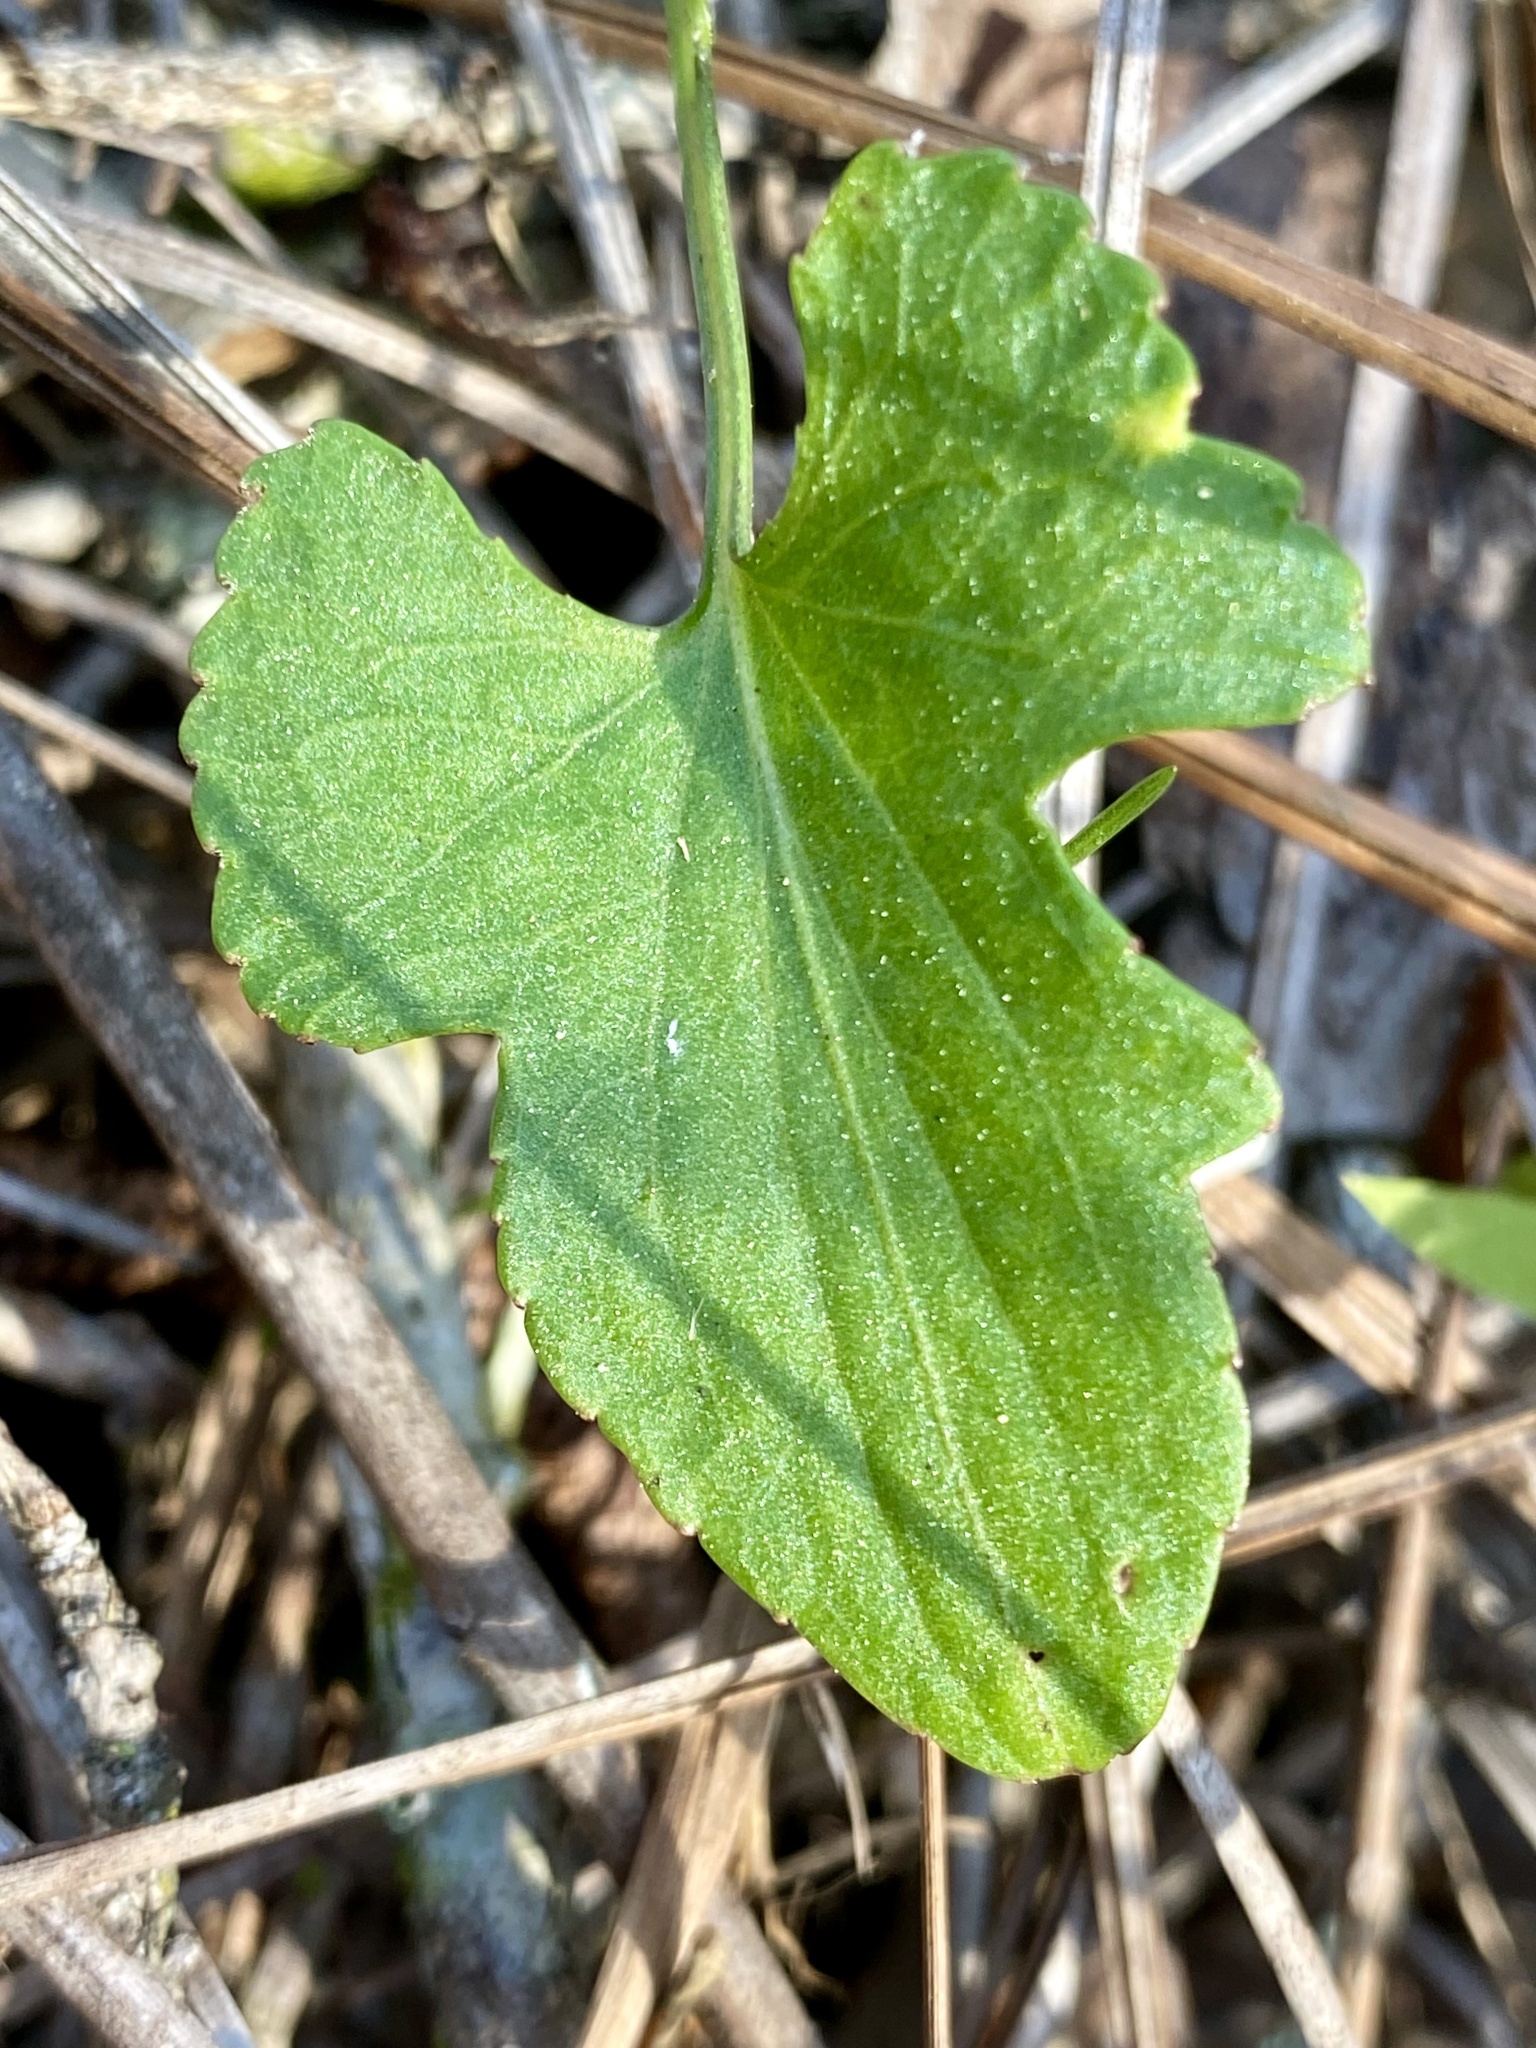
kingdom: Plantae
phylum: Tracheophyta
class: Magnoliopsida
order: Malpighiales
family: Violaceae
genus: Viola
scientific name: Viola septemloba
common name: Southern coast violet
